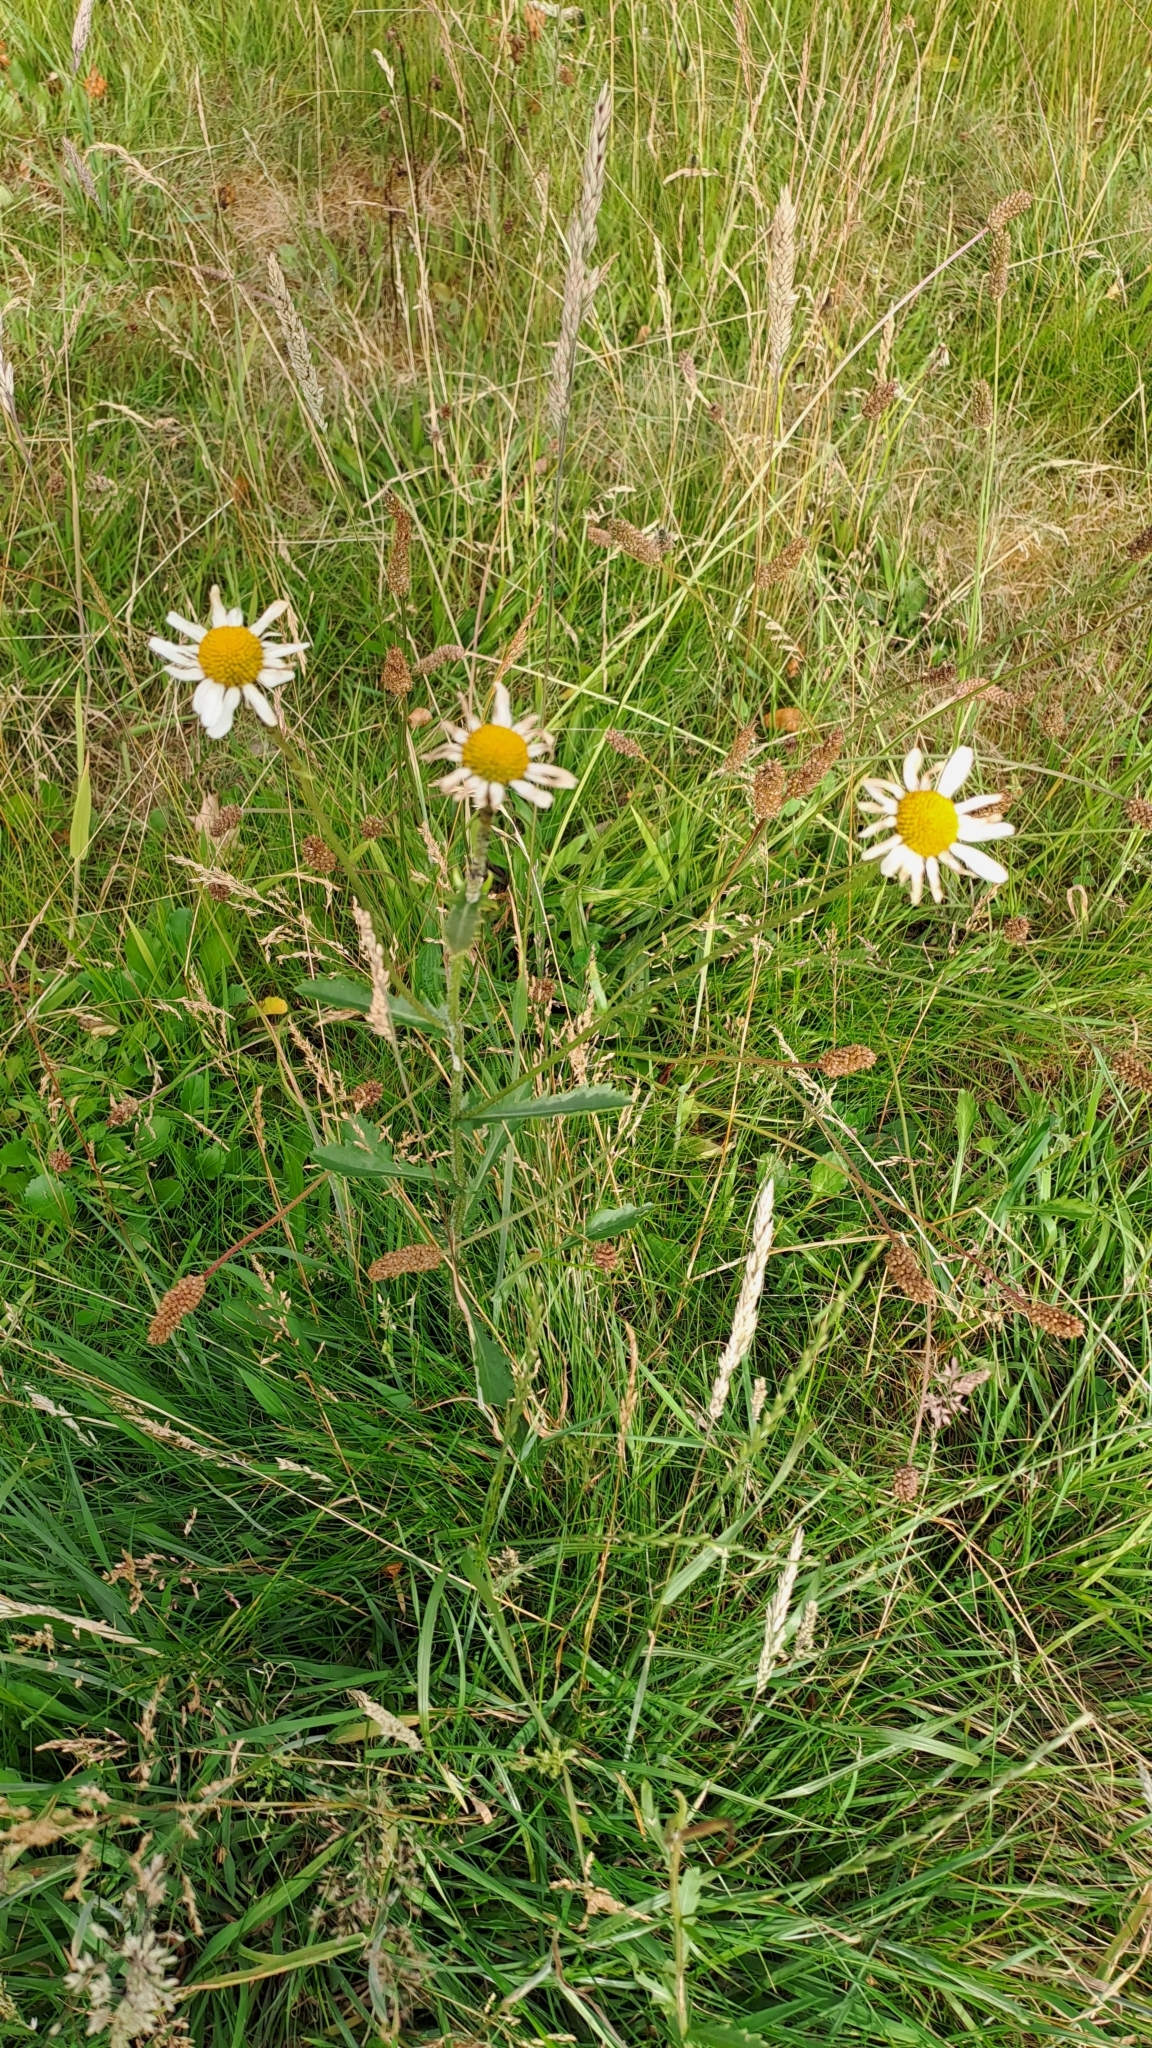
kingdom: Plantae
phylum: Tracheophyta
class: Magnoliopsida
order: Asterales
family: Asteraceae
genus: Leucanthemum
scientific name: Leucanthemum vulgare
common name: Oxeye daisy
